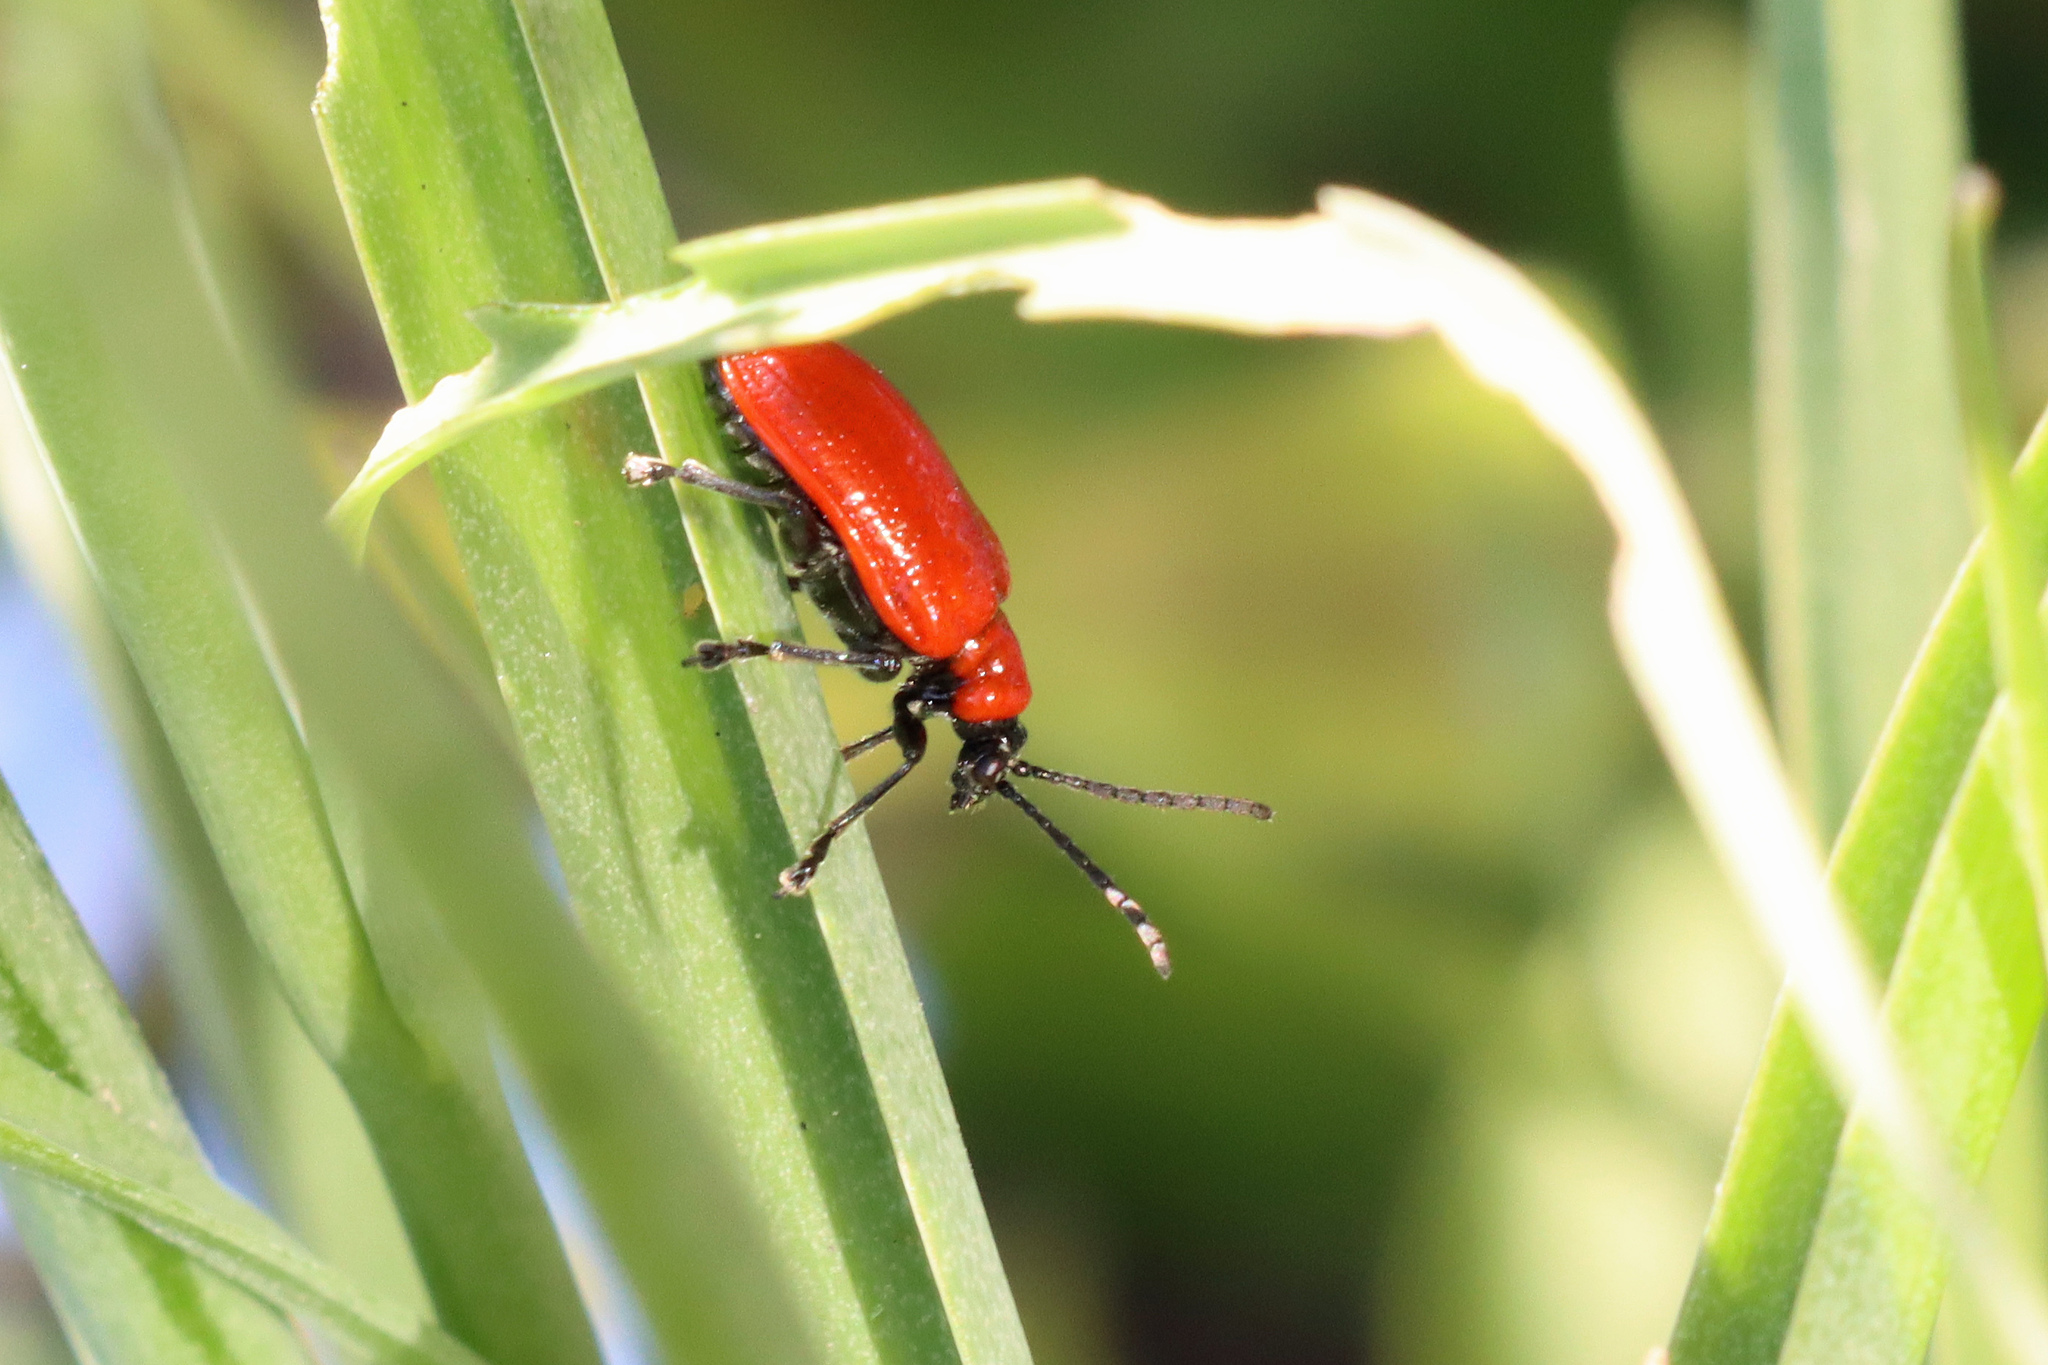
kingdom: Animalia
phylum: Arthropoda
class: Insecta
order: Coleoptera
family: Chrysomelidae
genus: Lilioceris
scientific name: Lilioceris lilii
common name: Lily beetle
